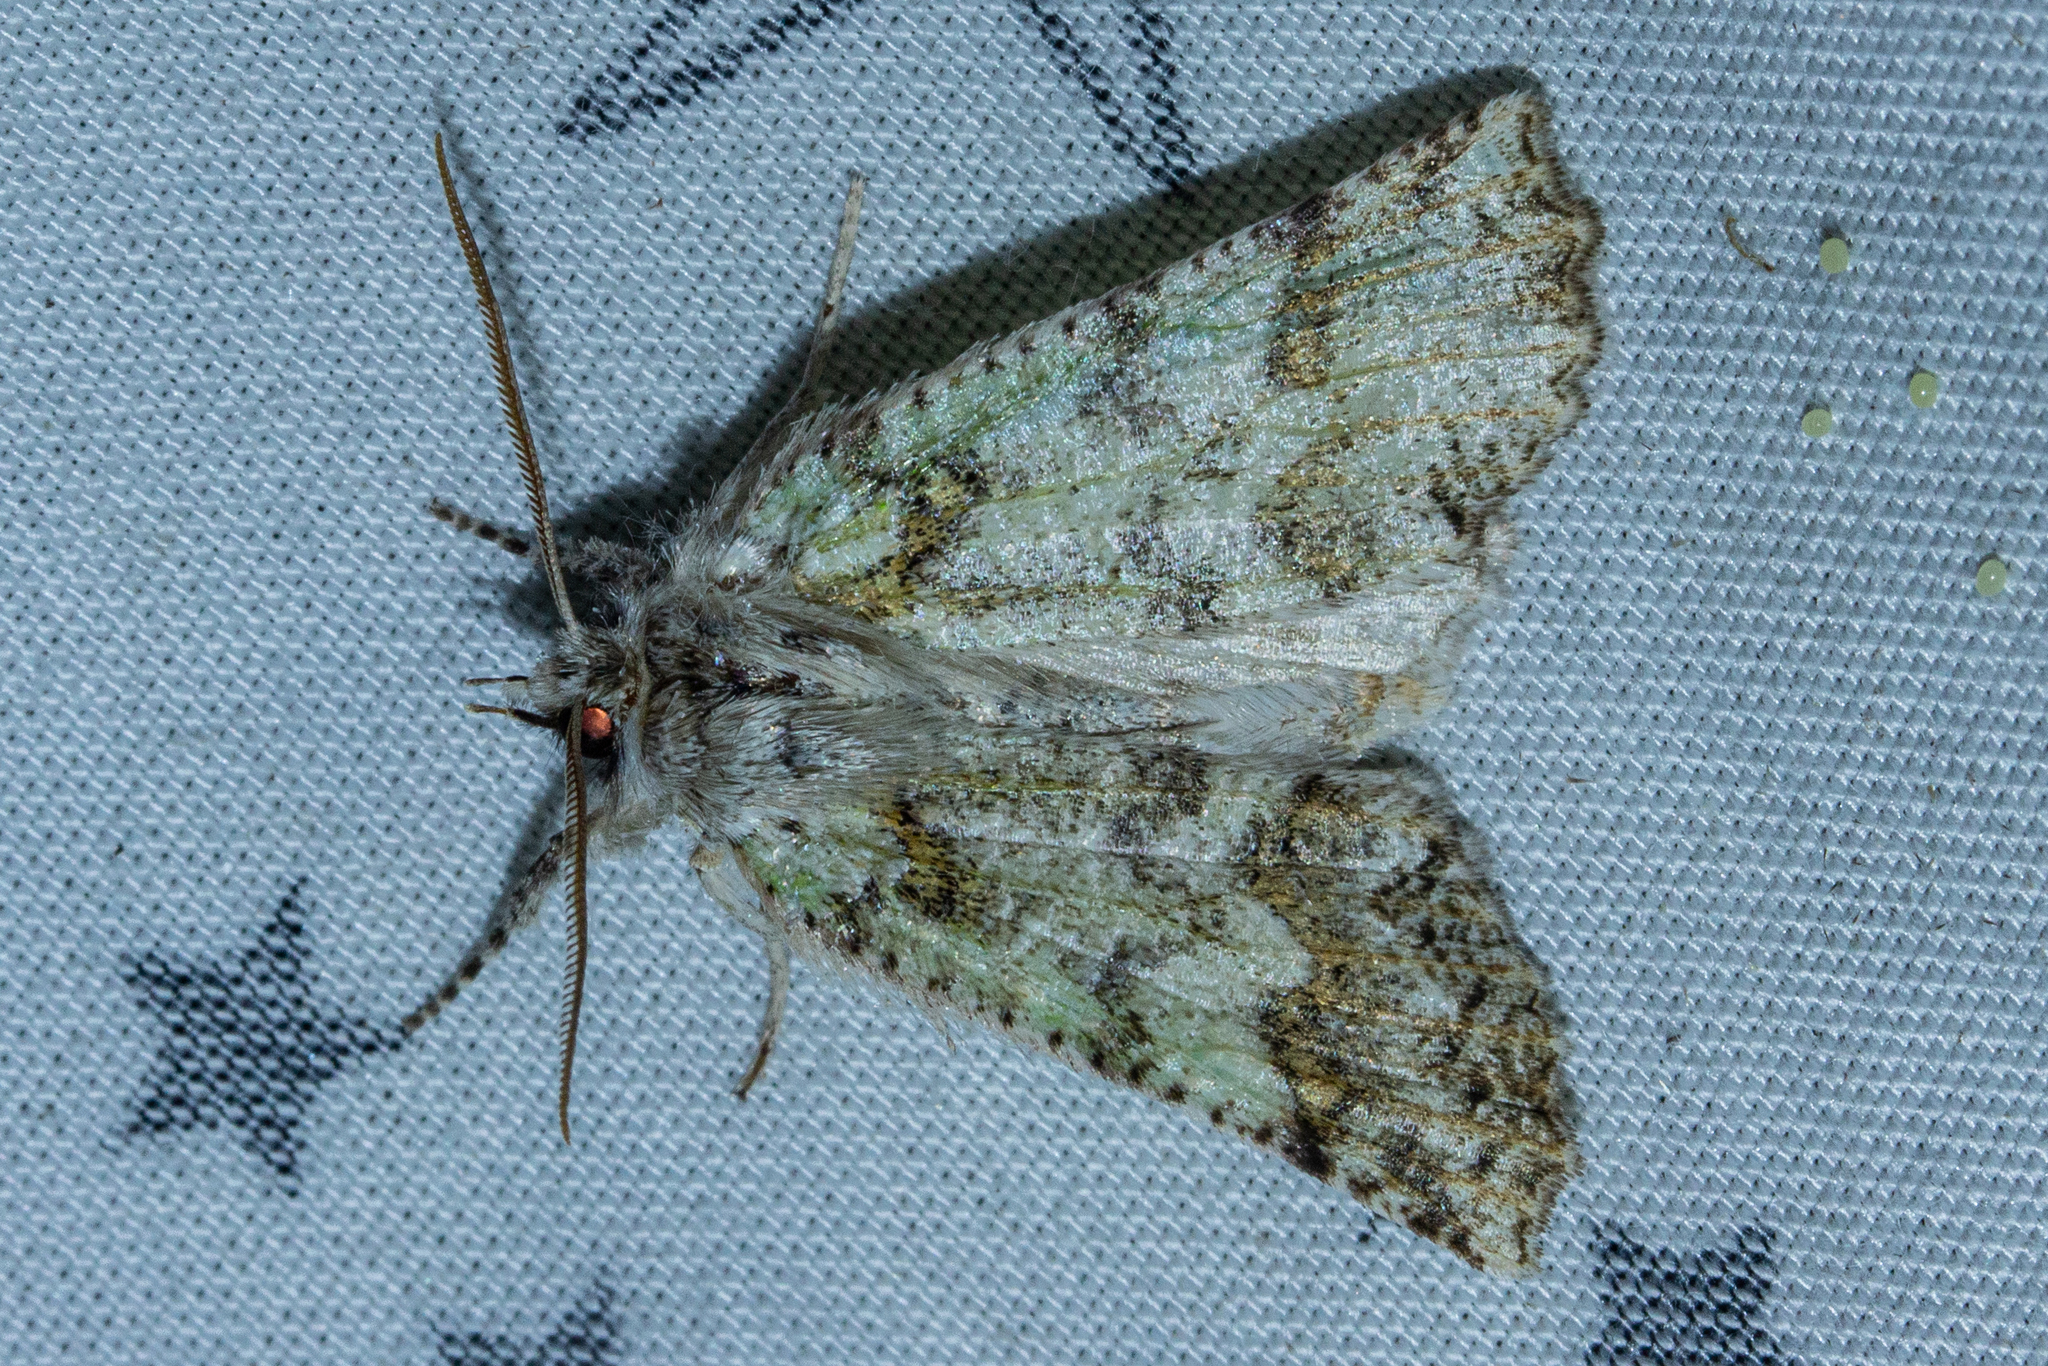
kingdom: Animalia
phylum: Arthropoda
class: Insecta
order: Lepidoptera
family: Geometridae
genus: Declana
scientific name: Declana floccosa
